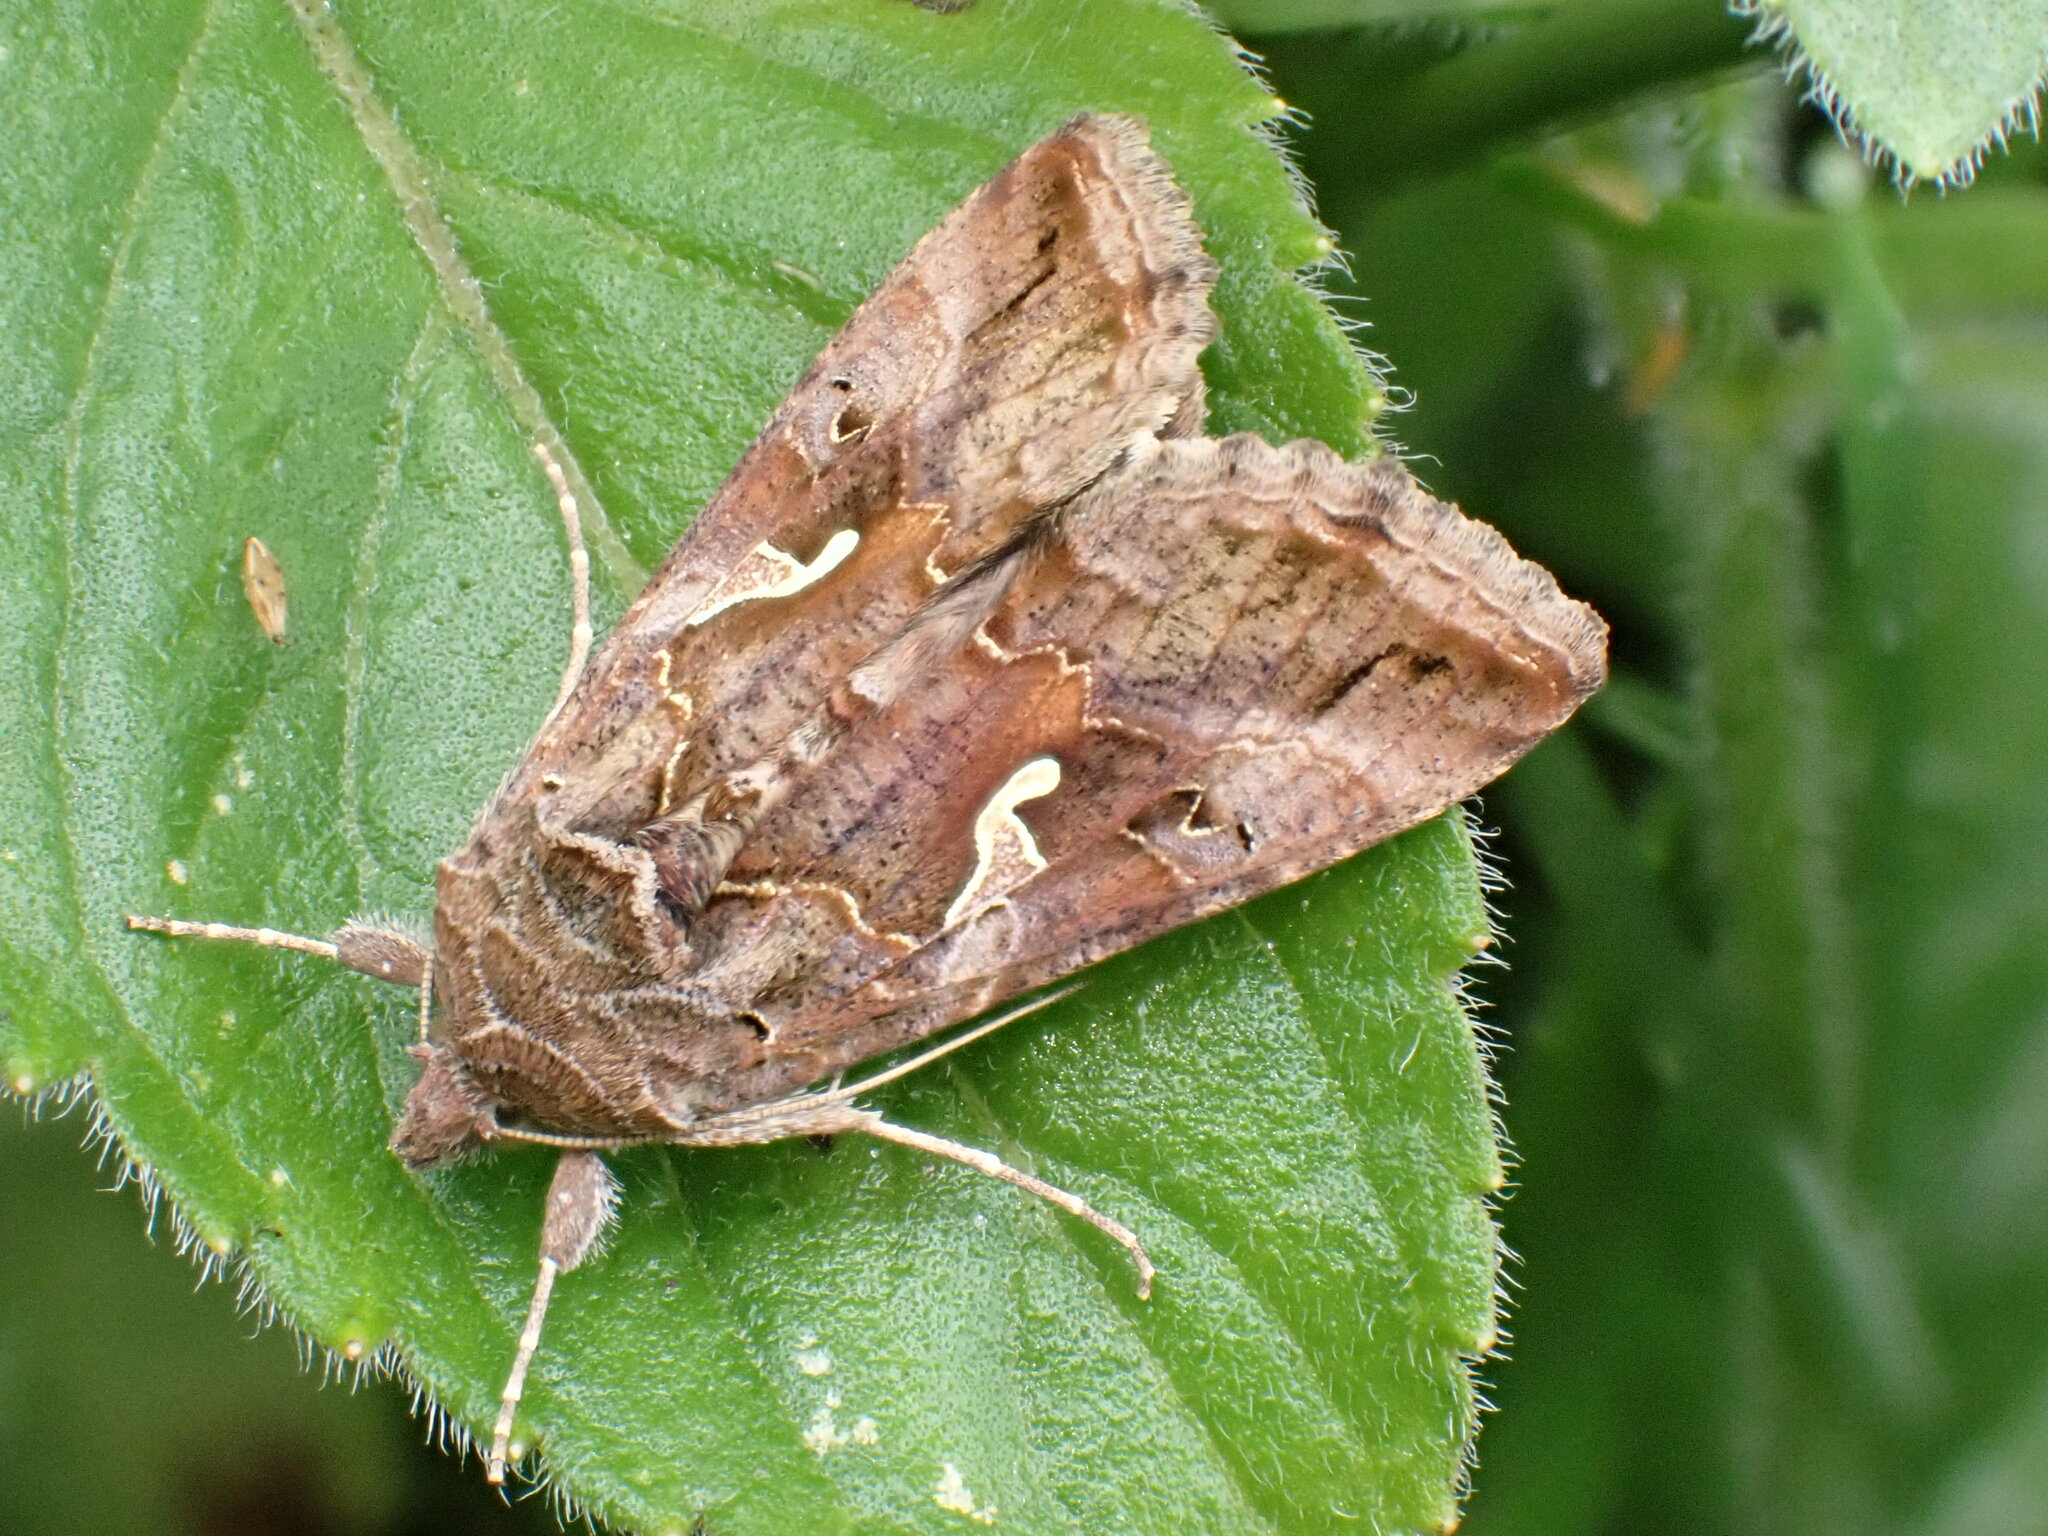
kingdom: Animalia
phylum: Arthropoda
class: Insecta
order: Lepidoptera
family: Noctuidae
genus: Autographa
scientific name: Autographa gamma
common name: Silver y
